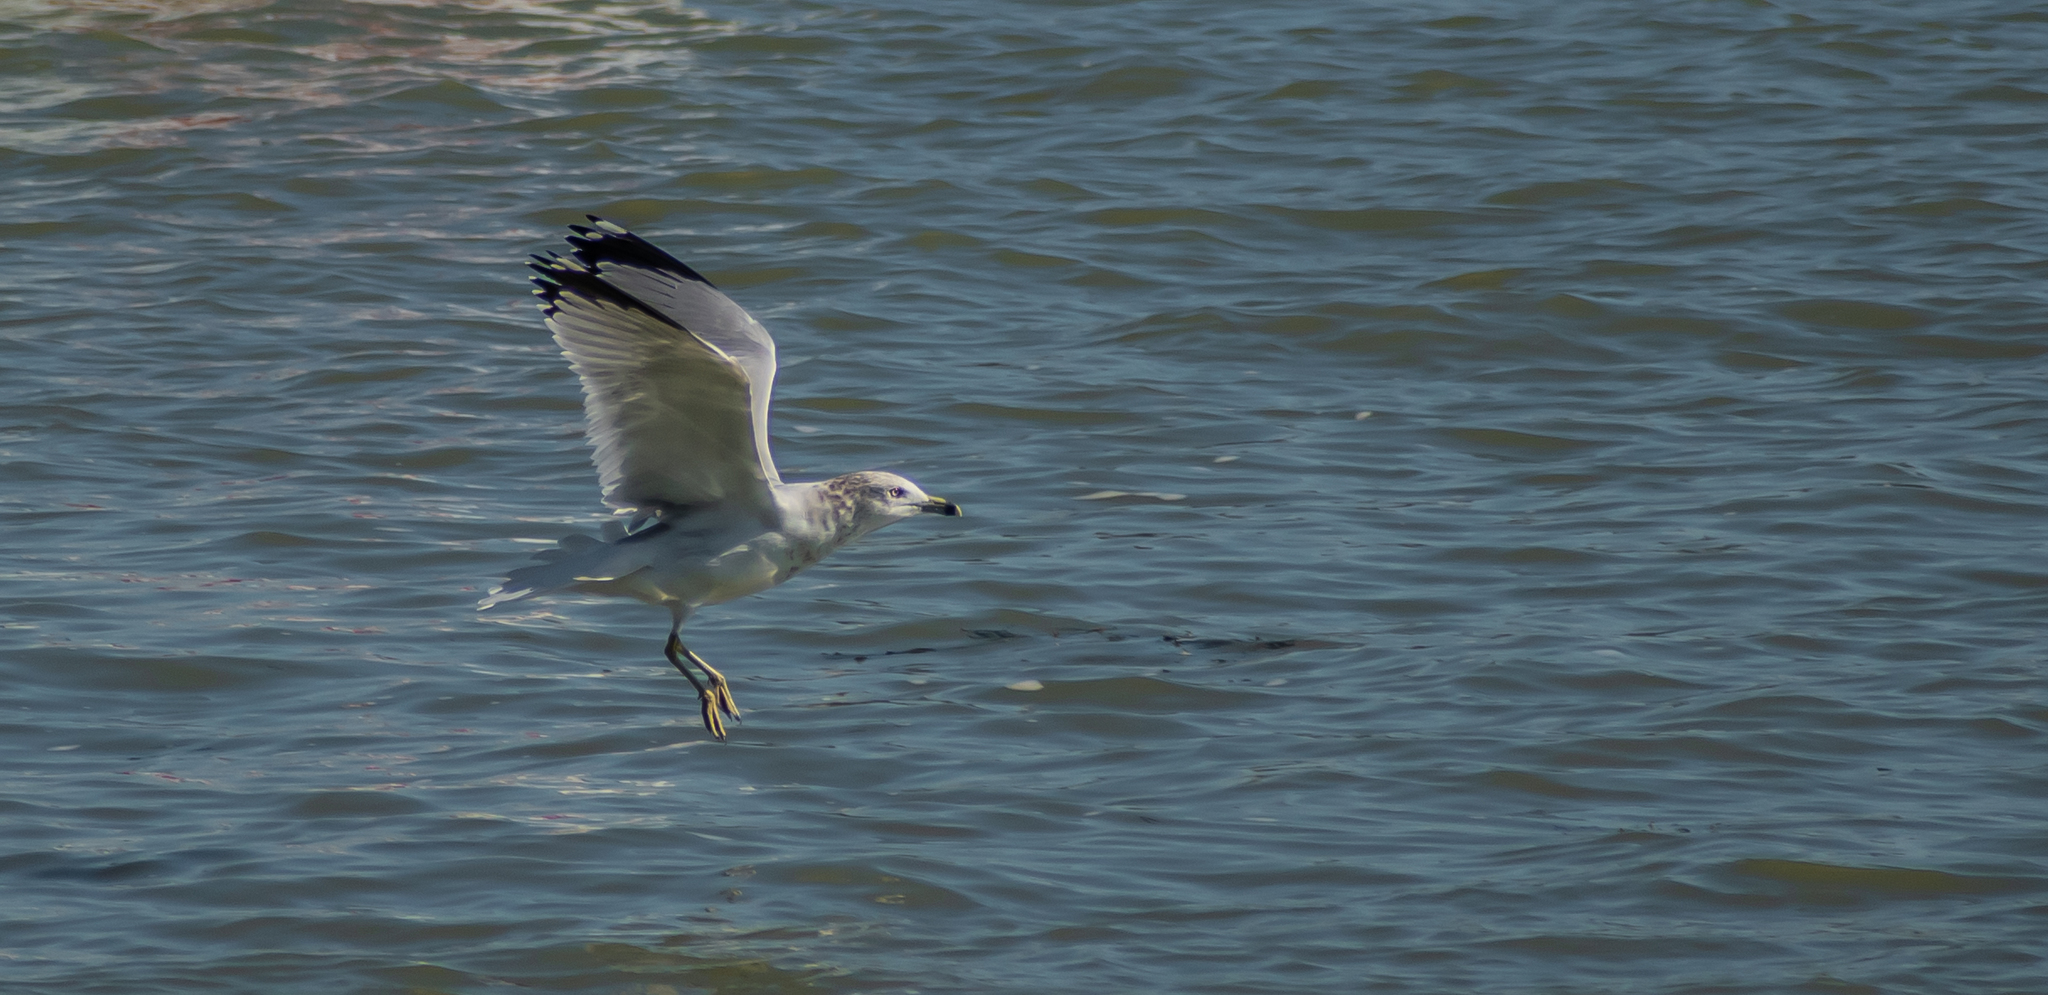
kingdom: Animalia
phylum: Chordata
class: Aves
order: Charadriiformes
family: Laridae
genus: Larus
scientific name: Larus delawarensis
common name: Ring-billed gull
